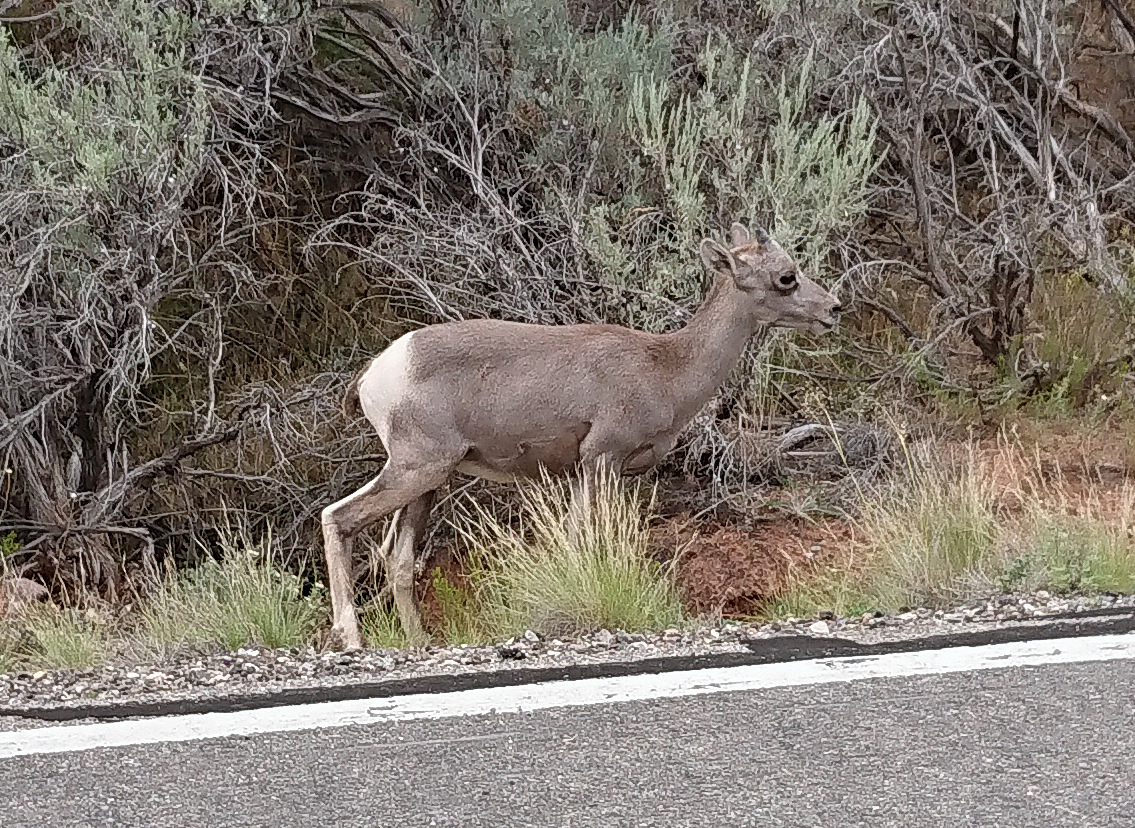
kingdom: Animalia
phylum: Chordata
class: Mammalia
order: Artiodactyla
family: Bovidae
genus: Ovis
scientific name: Ovis canadensis
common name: Bighorn sheep
